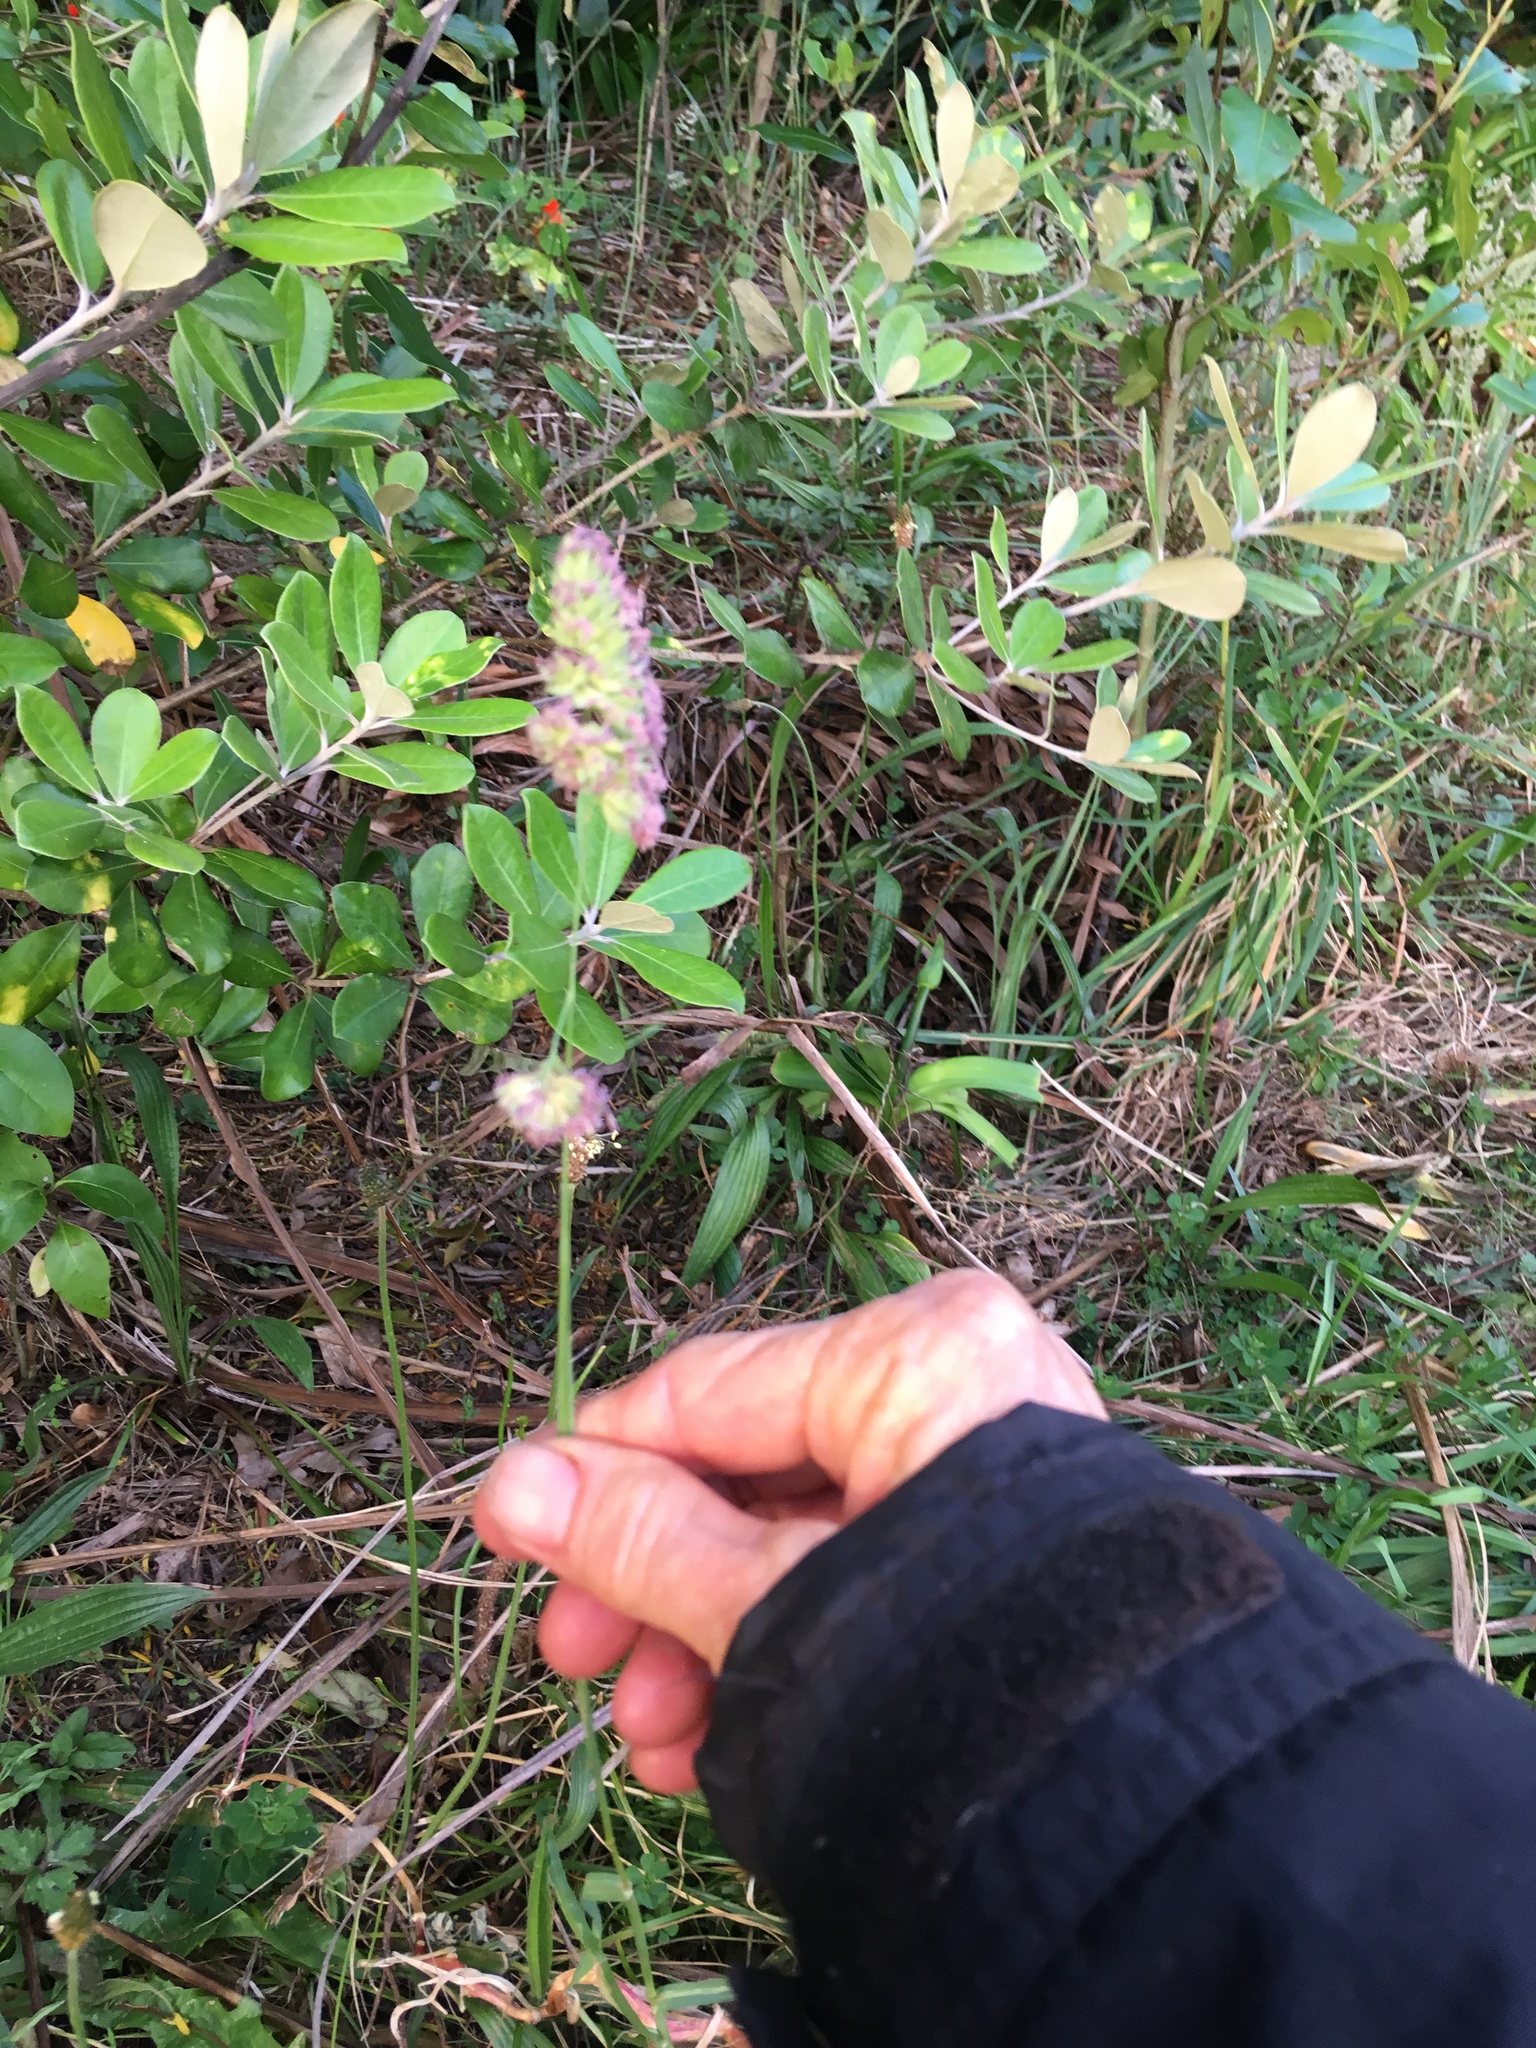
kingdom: Plantae
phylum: Tracheophyta
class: Liliopsida
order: Poales
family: Poaceae
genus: Dactylis
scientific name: Dactylis glomerata
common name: Orchardgrass
